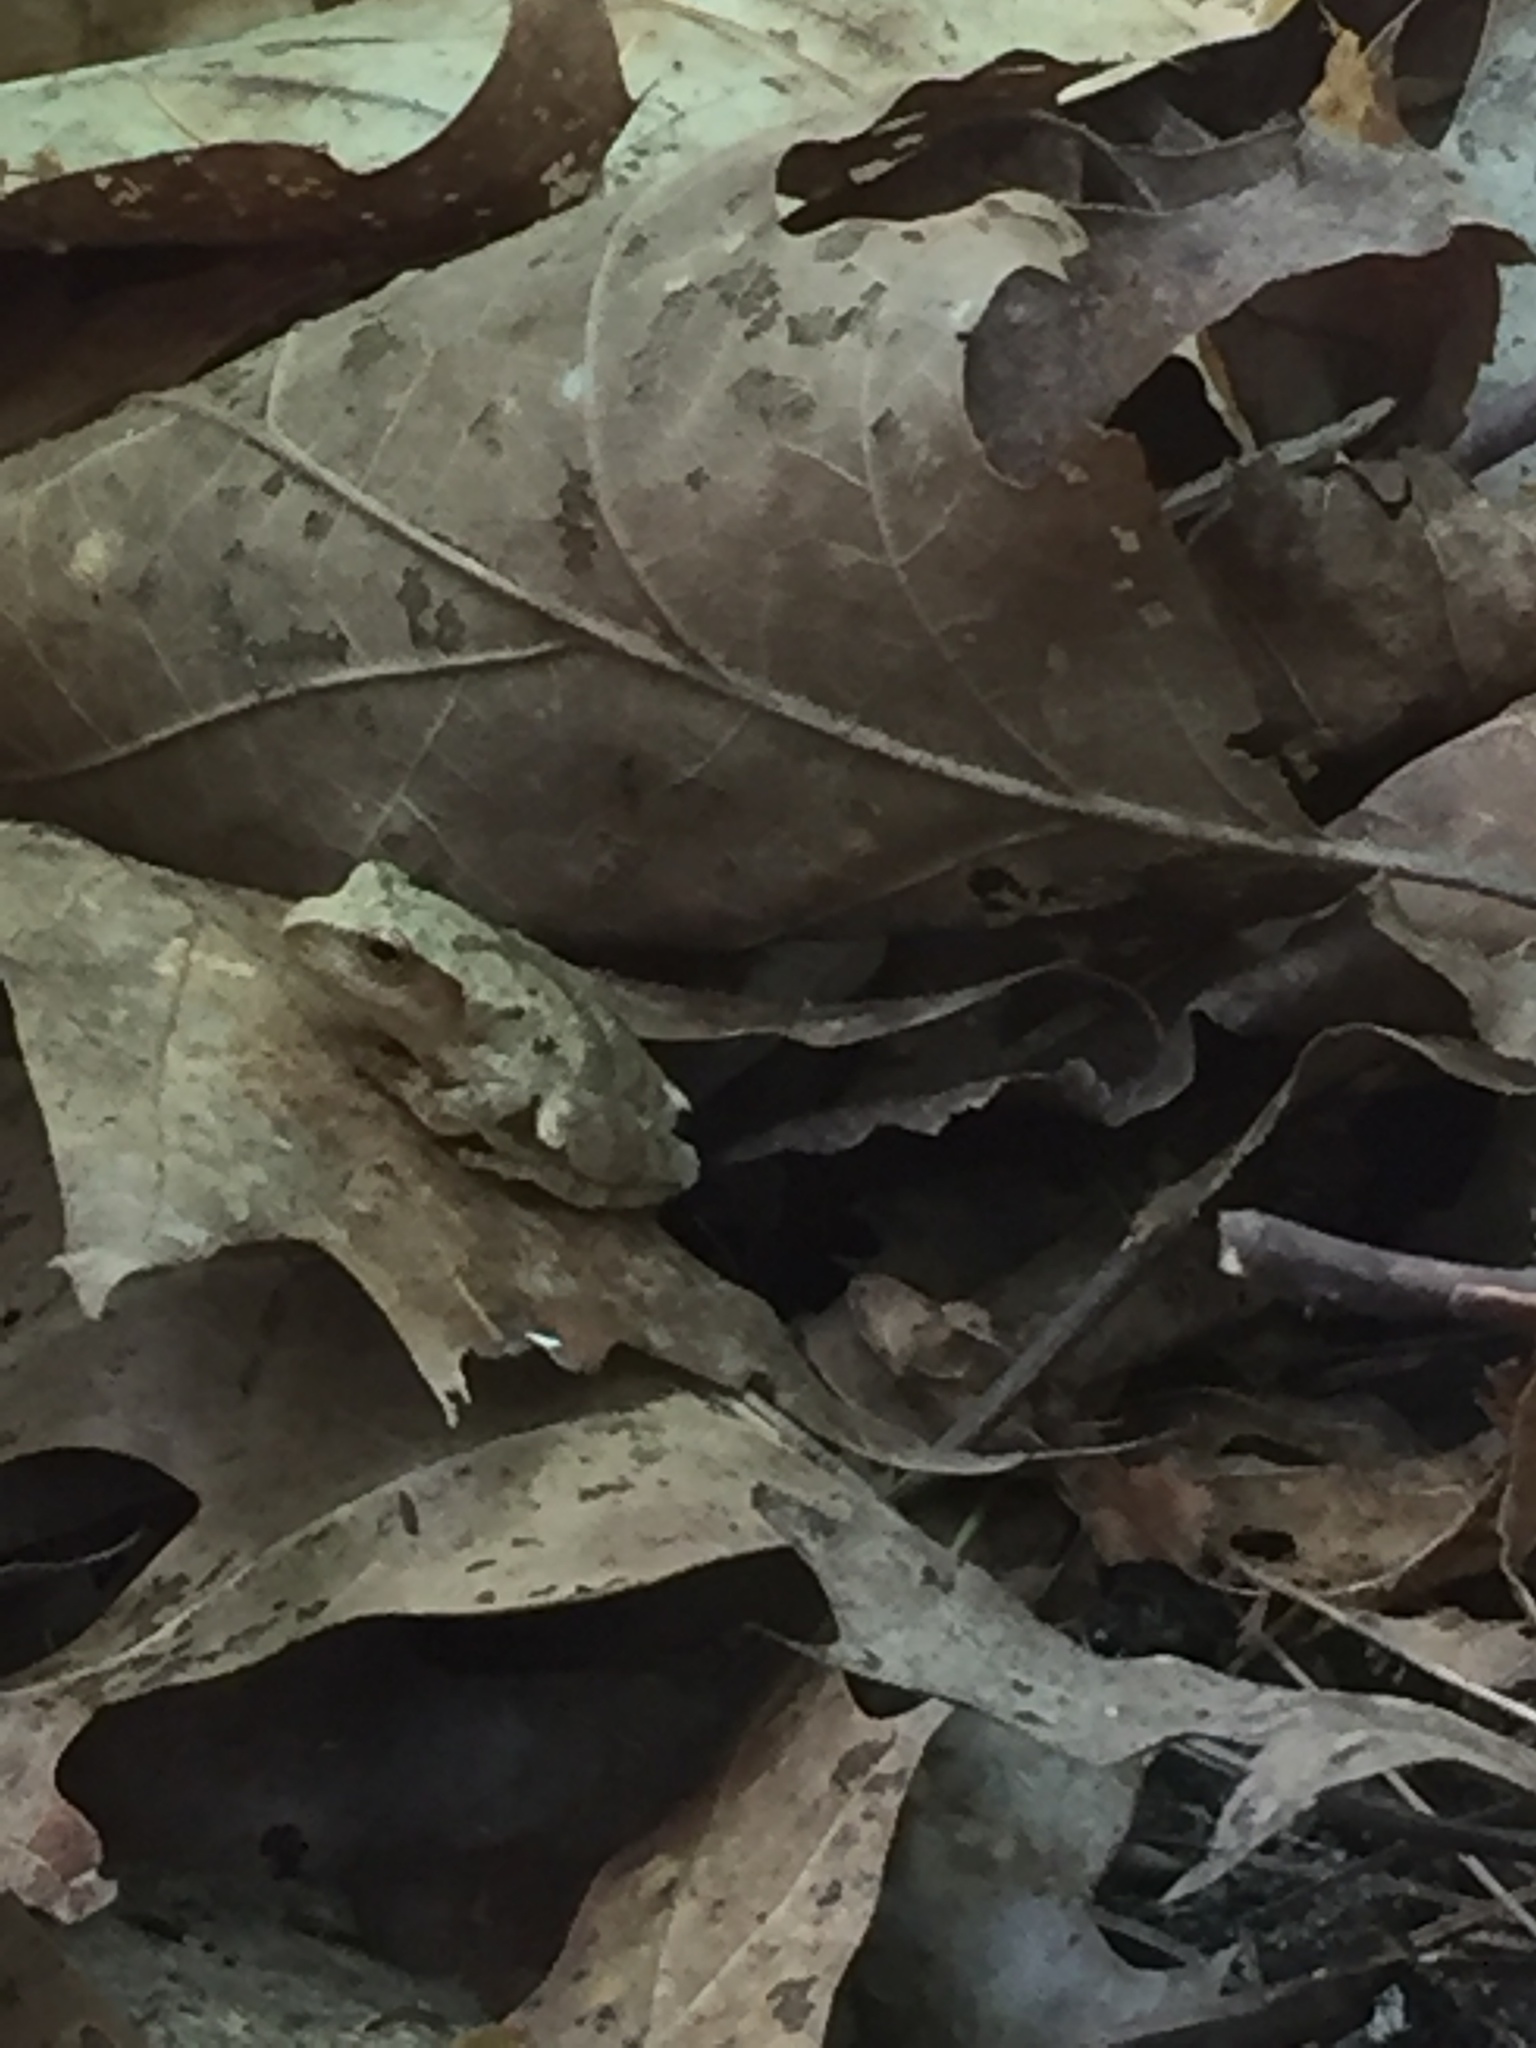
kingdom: Animalia
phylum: Chordata
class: Amphibia
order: Anura
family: Hylidae
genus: Pseudacris
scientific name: Pseudacris crucifer
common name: Spring peeper
